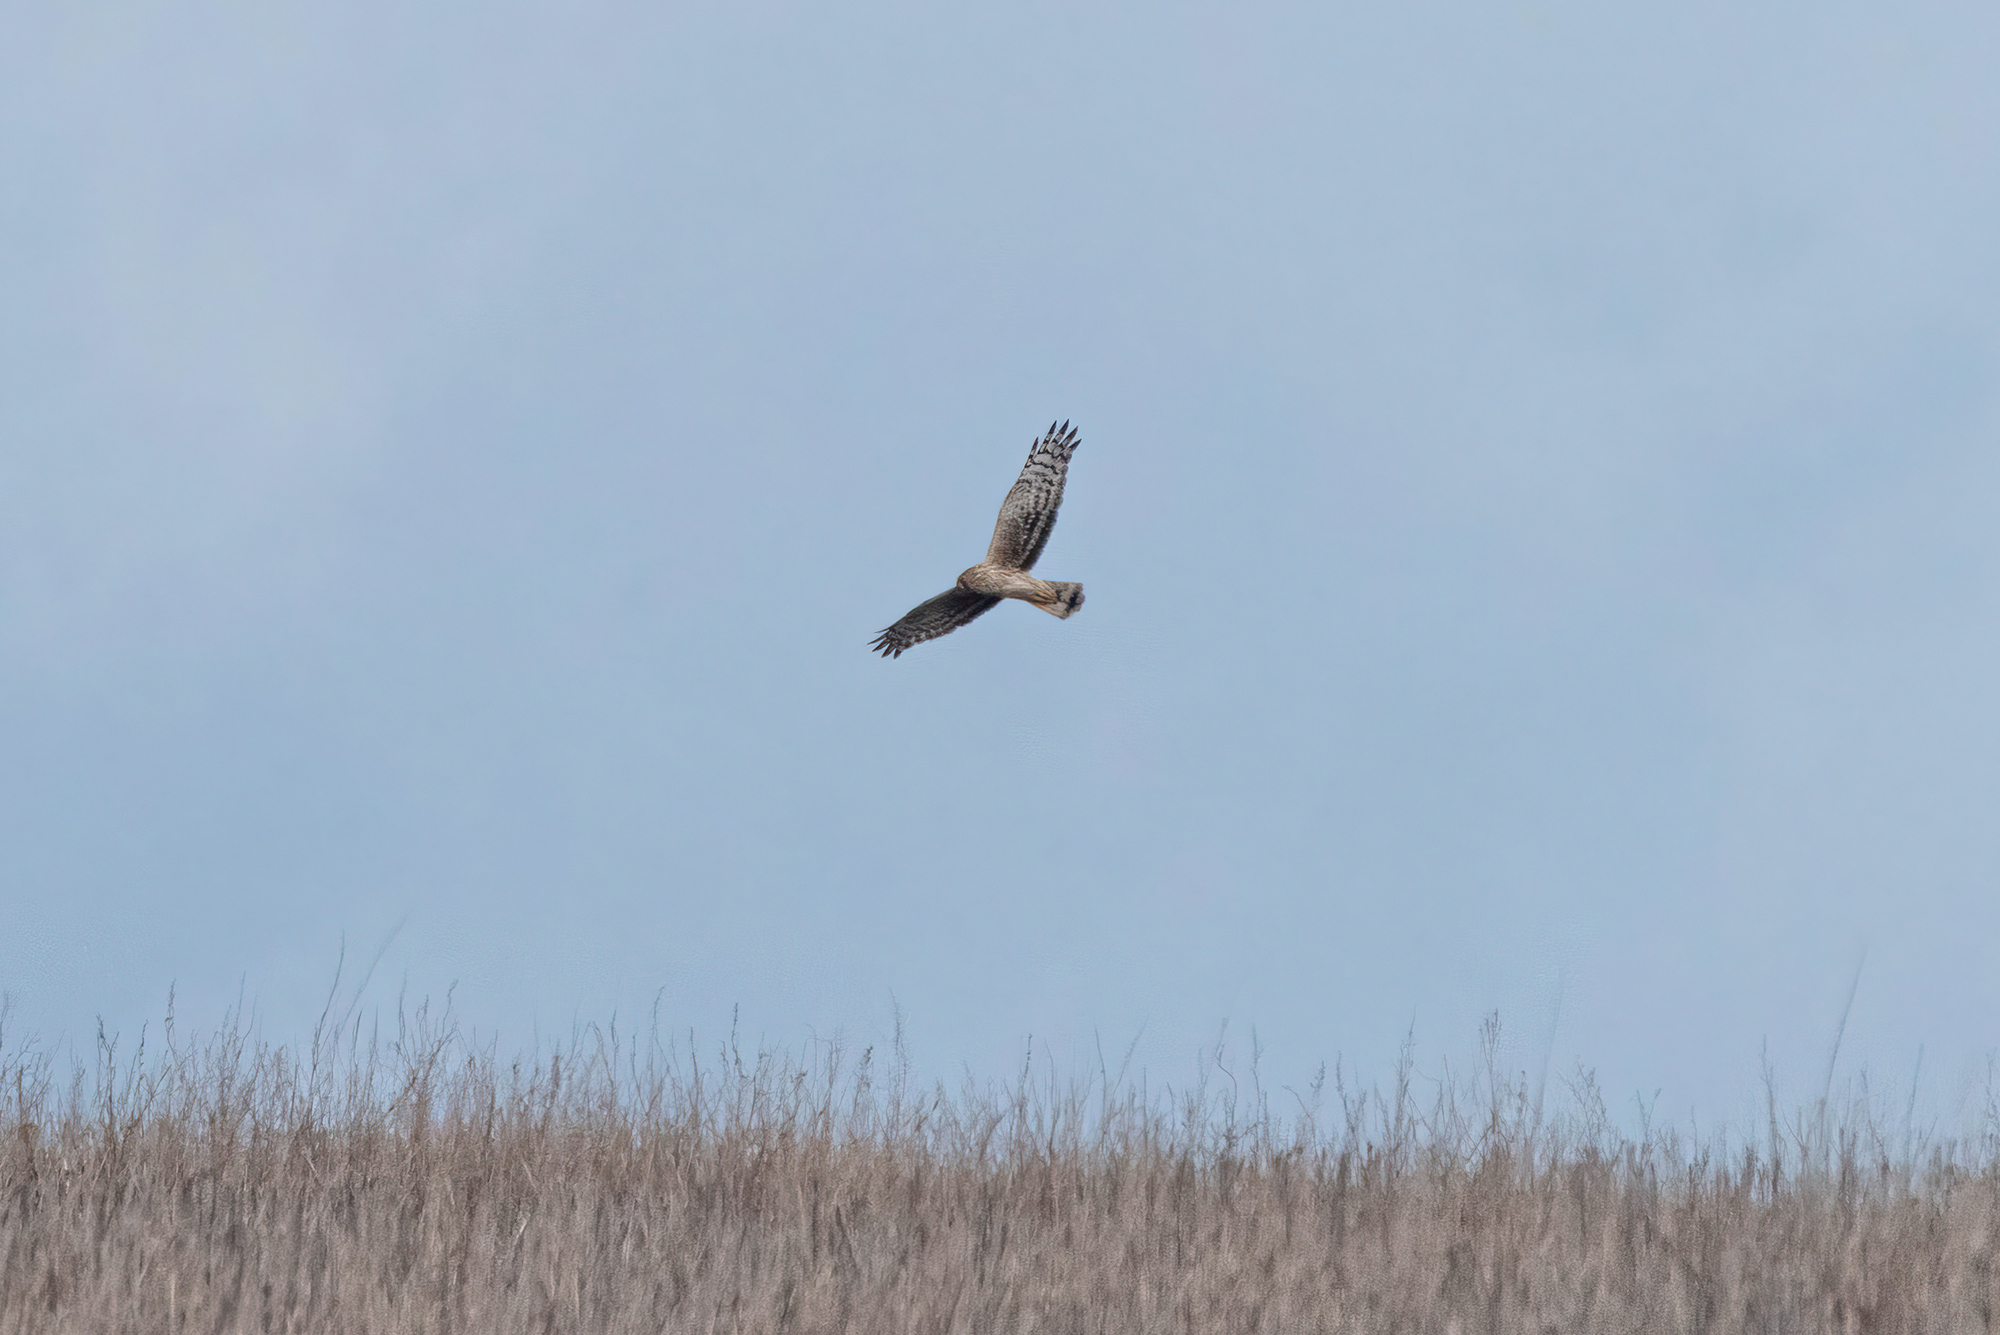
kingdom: Animalia
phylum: Chordata
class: Aves
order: Accipitriformes
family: Accipitridae
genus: Circus
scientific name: Circus cyaneus
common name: Hen harrier
